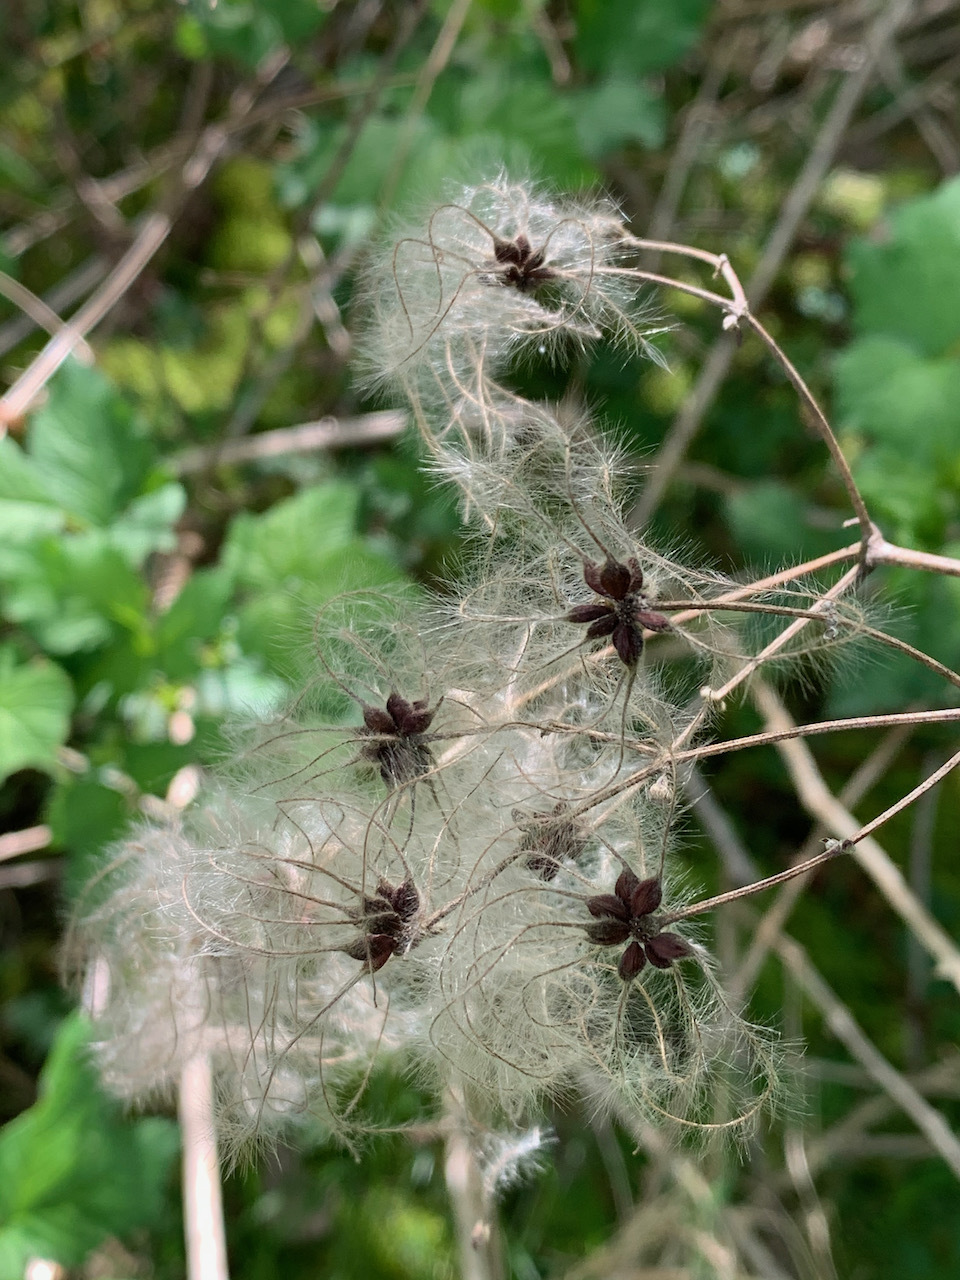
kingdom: Plantae
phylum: Tracheophyta
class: Magnoliopsida
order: Ranunculales
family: Ranunculaceae
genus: Clematis
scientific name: Clematis vitalba
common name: Evergreen clematis
